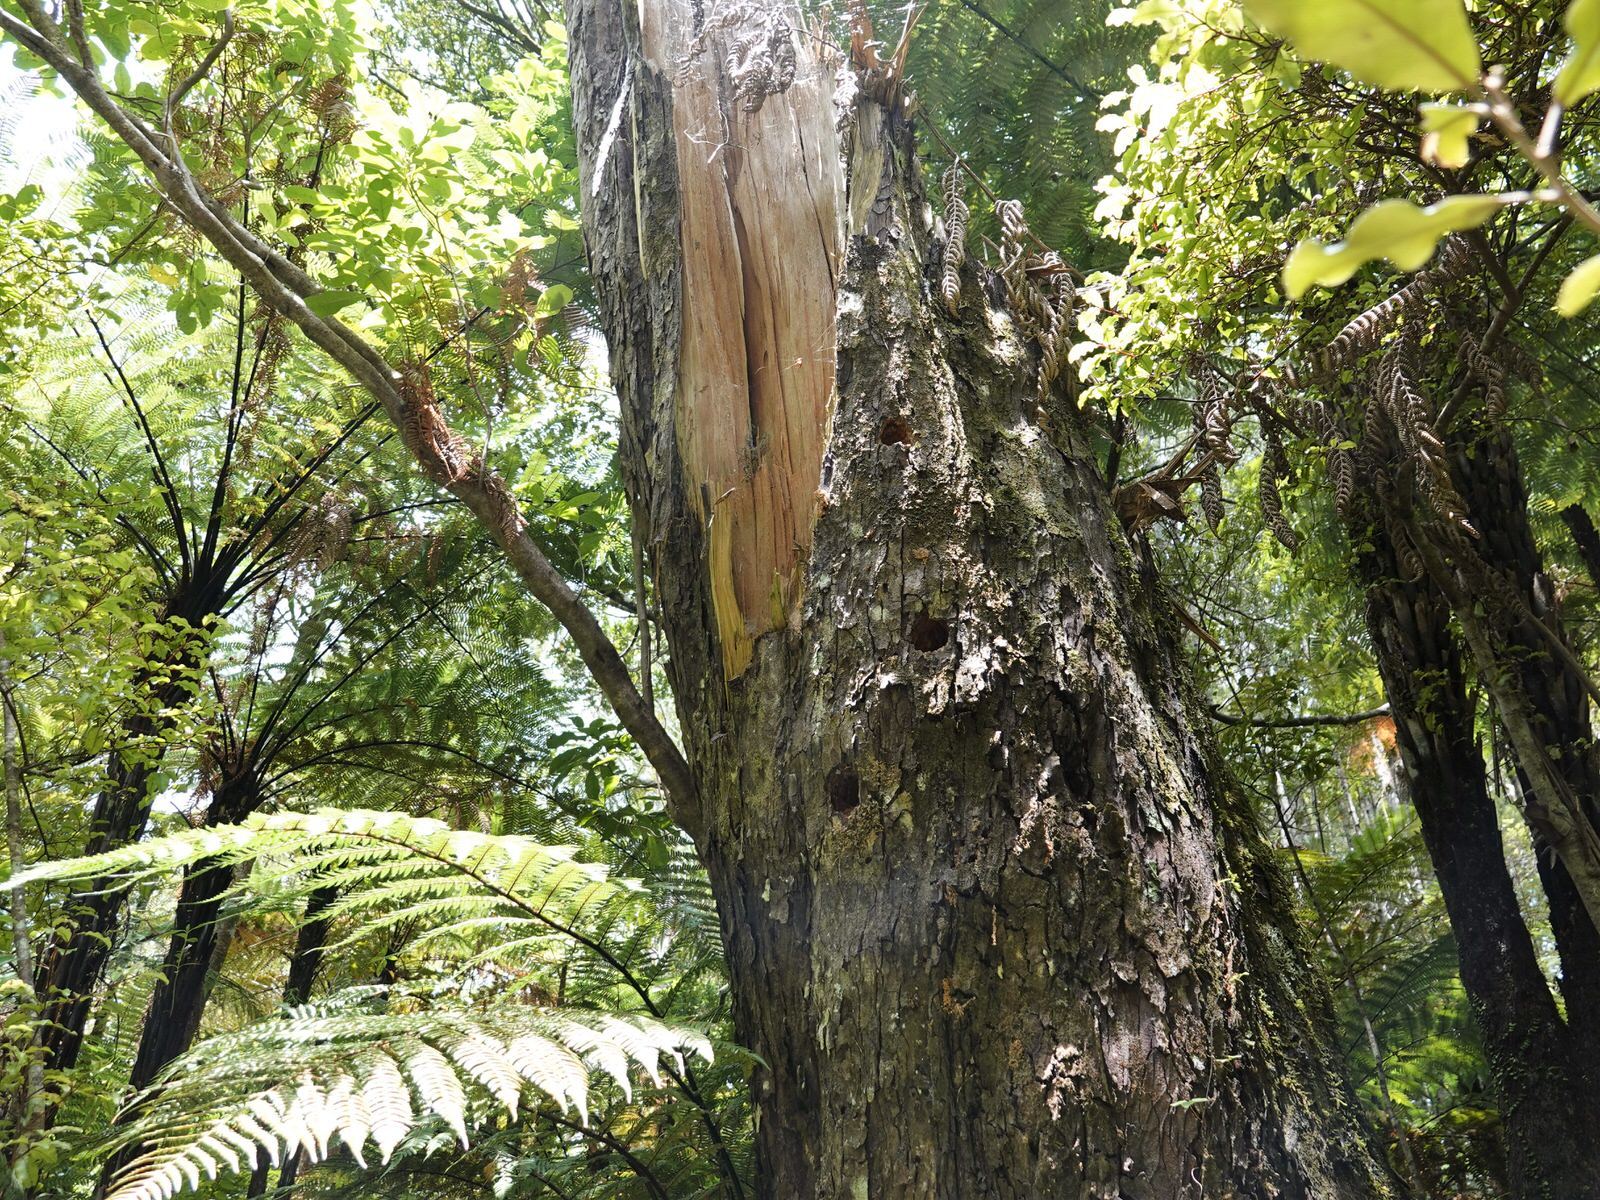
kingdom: Animalia
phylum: Chordata
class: Aves
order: Coraciiformes
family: Alcedinidae
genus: Todiramphus
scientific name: Todiramphus sanctus
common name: Sacred kingfisher
